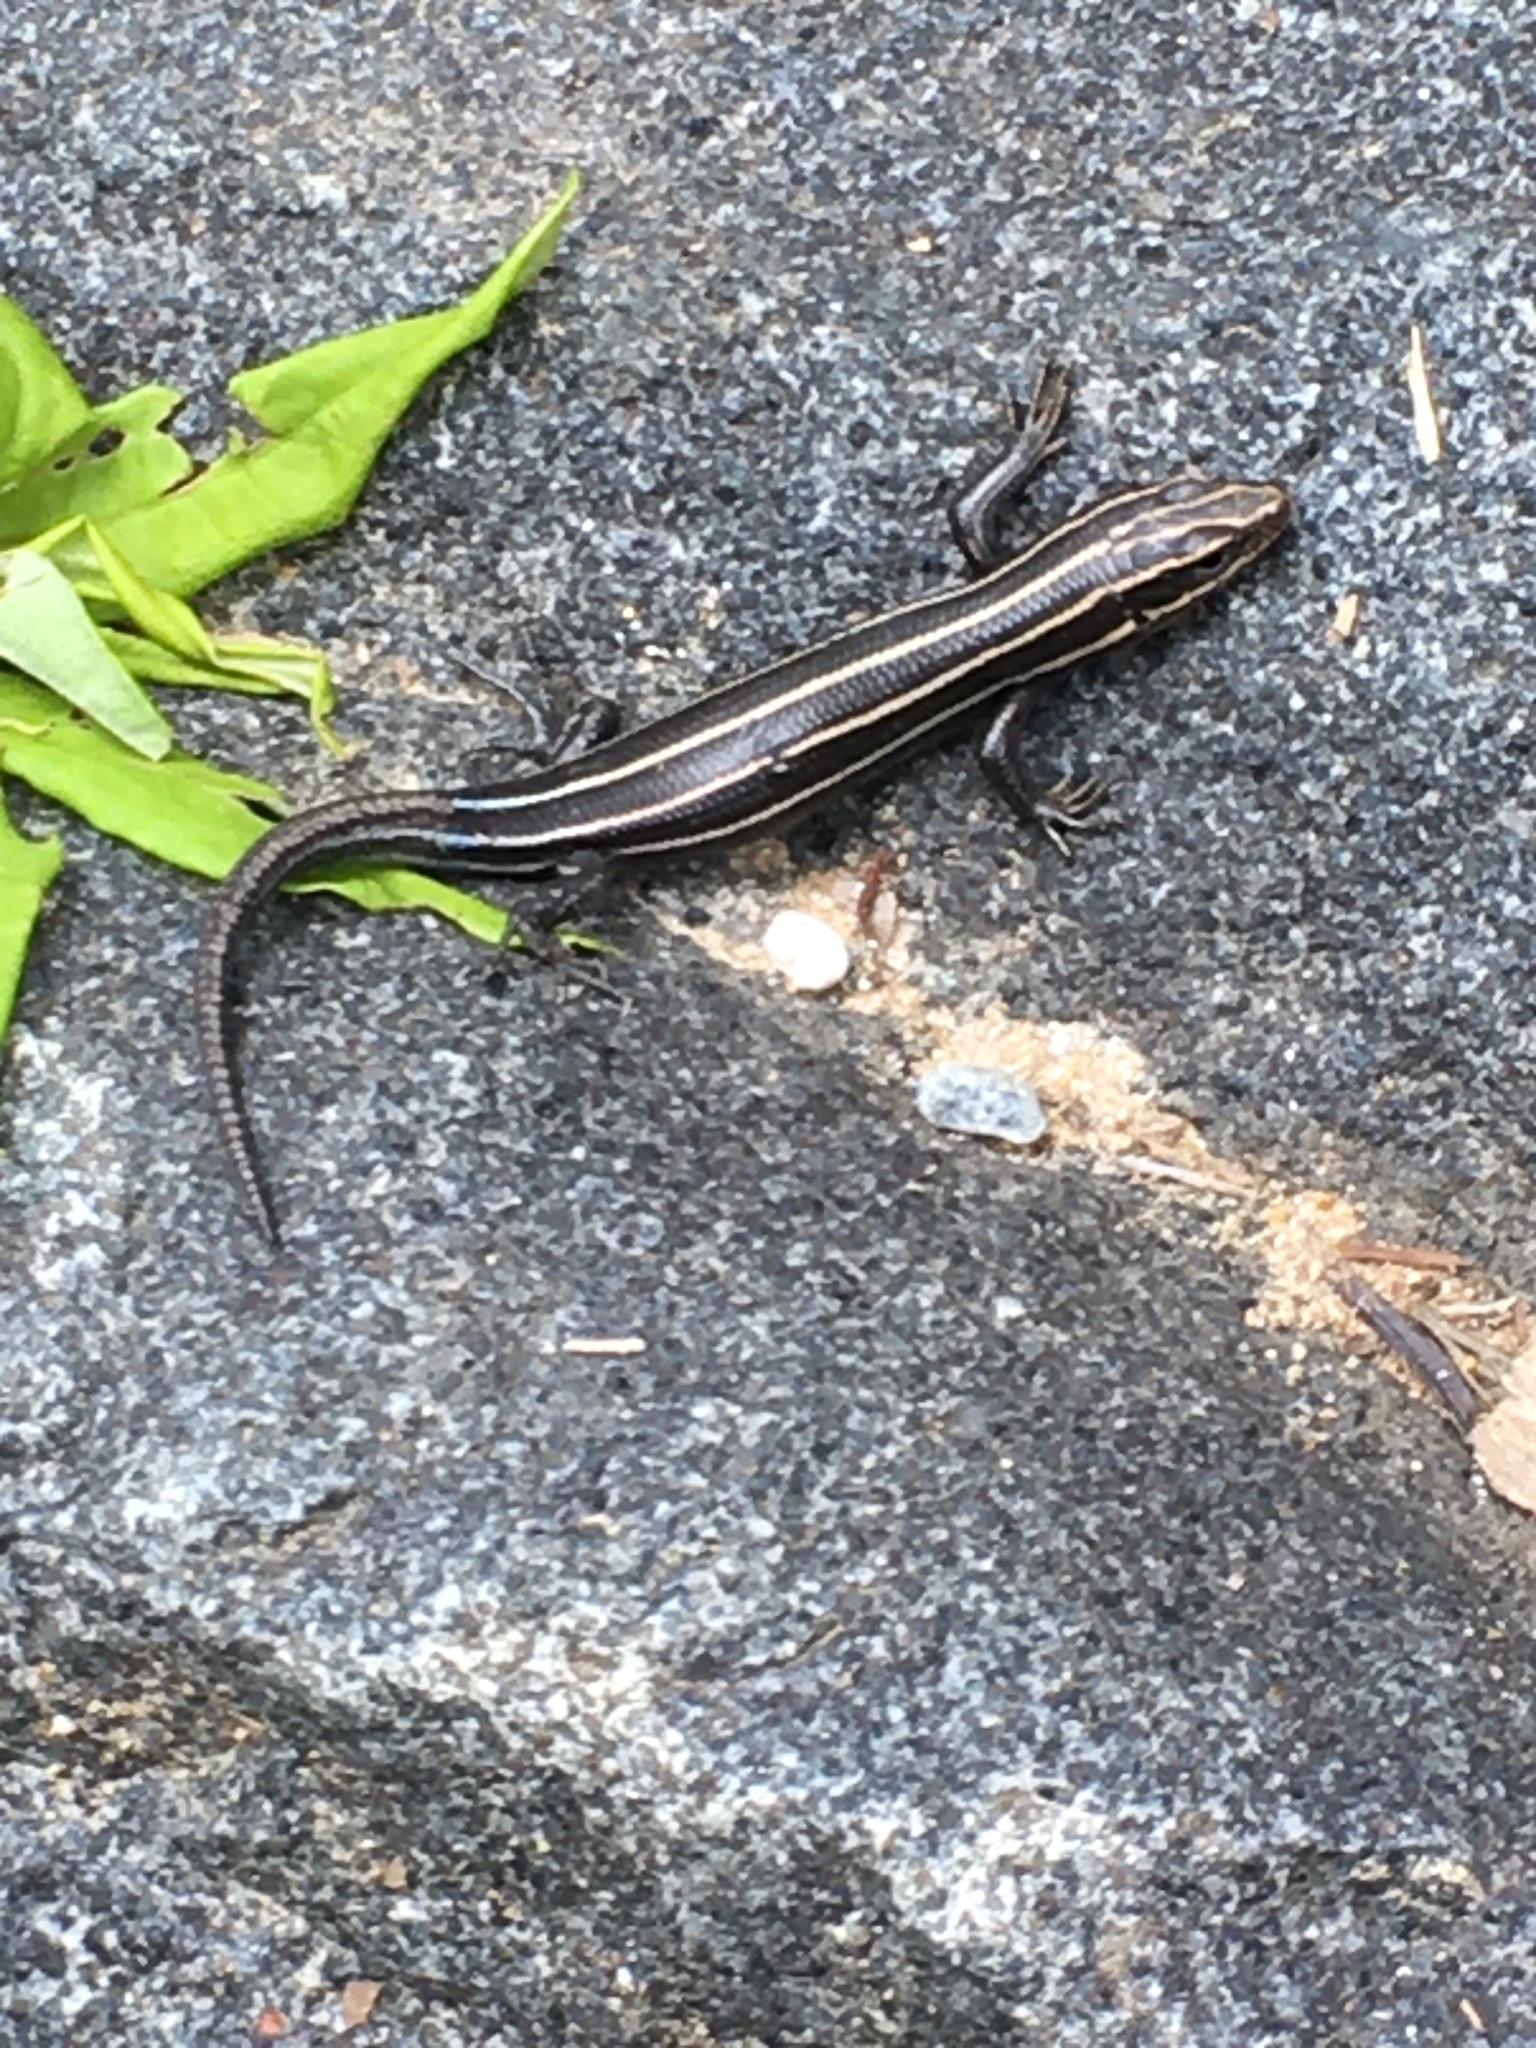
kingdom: Animalia
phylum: Chordata
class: Squamata
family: Scincidae
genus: Plestiodon
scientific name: Plestiodon fasciatus
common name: Five-lined skink
